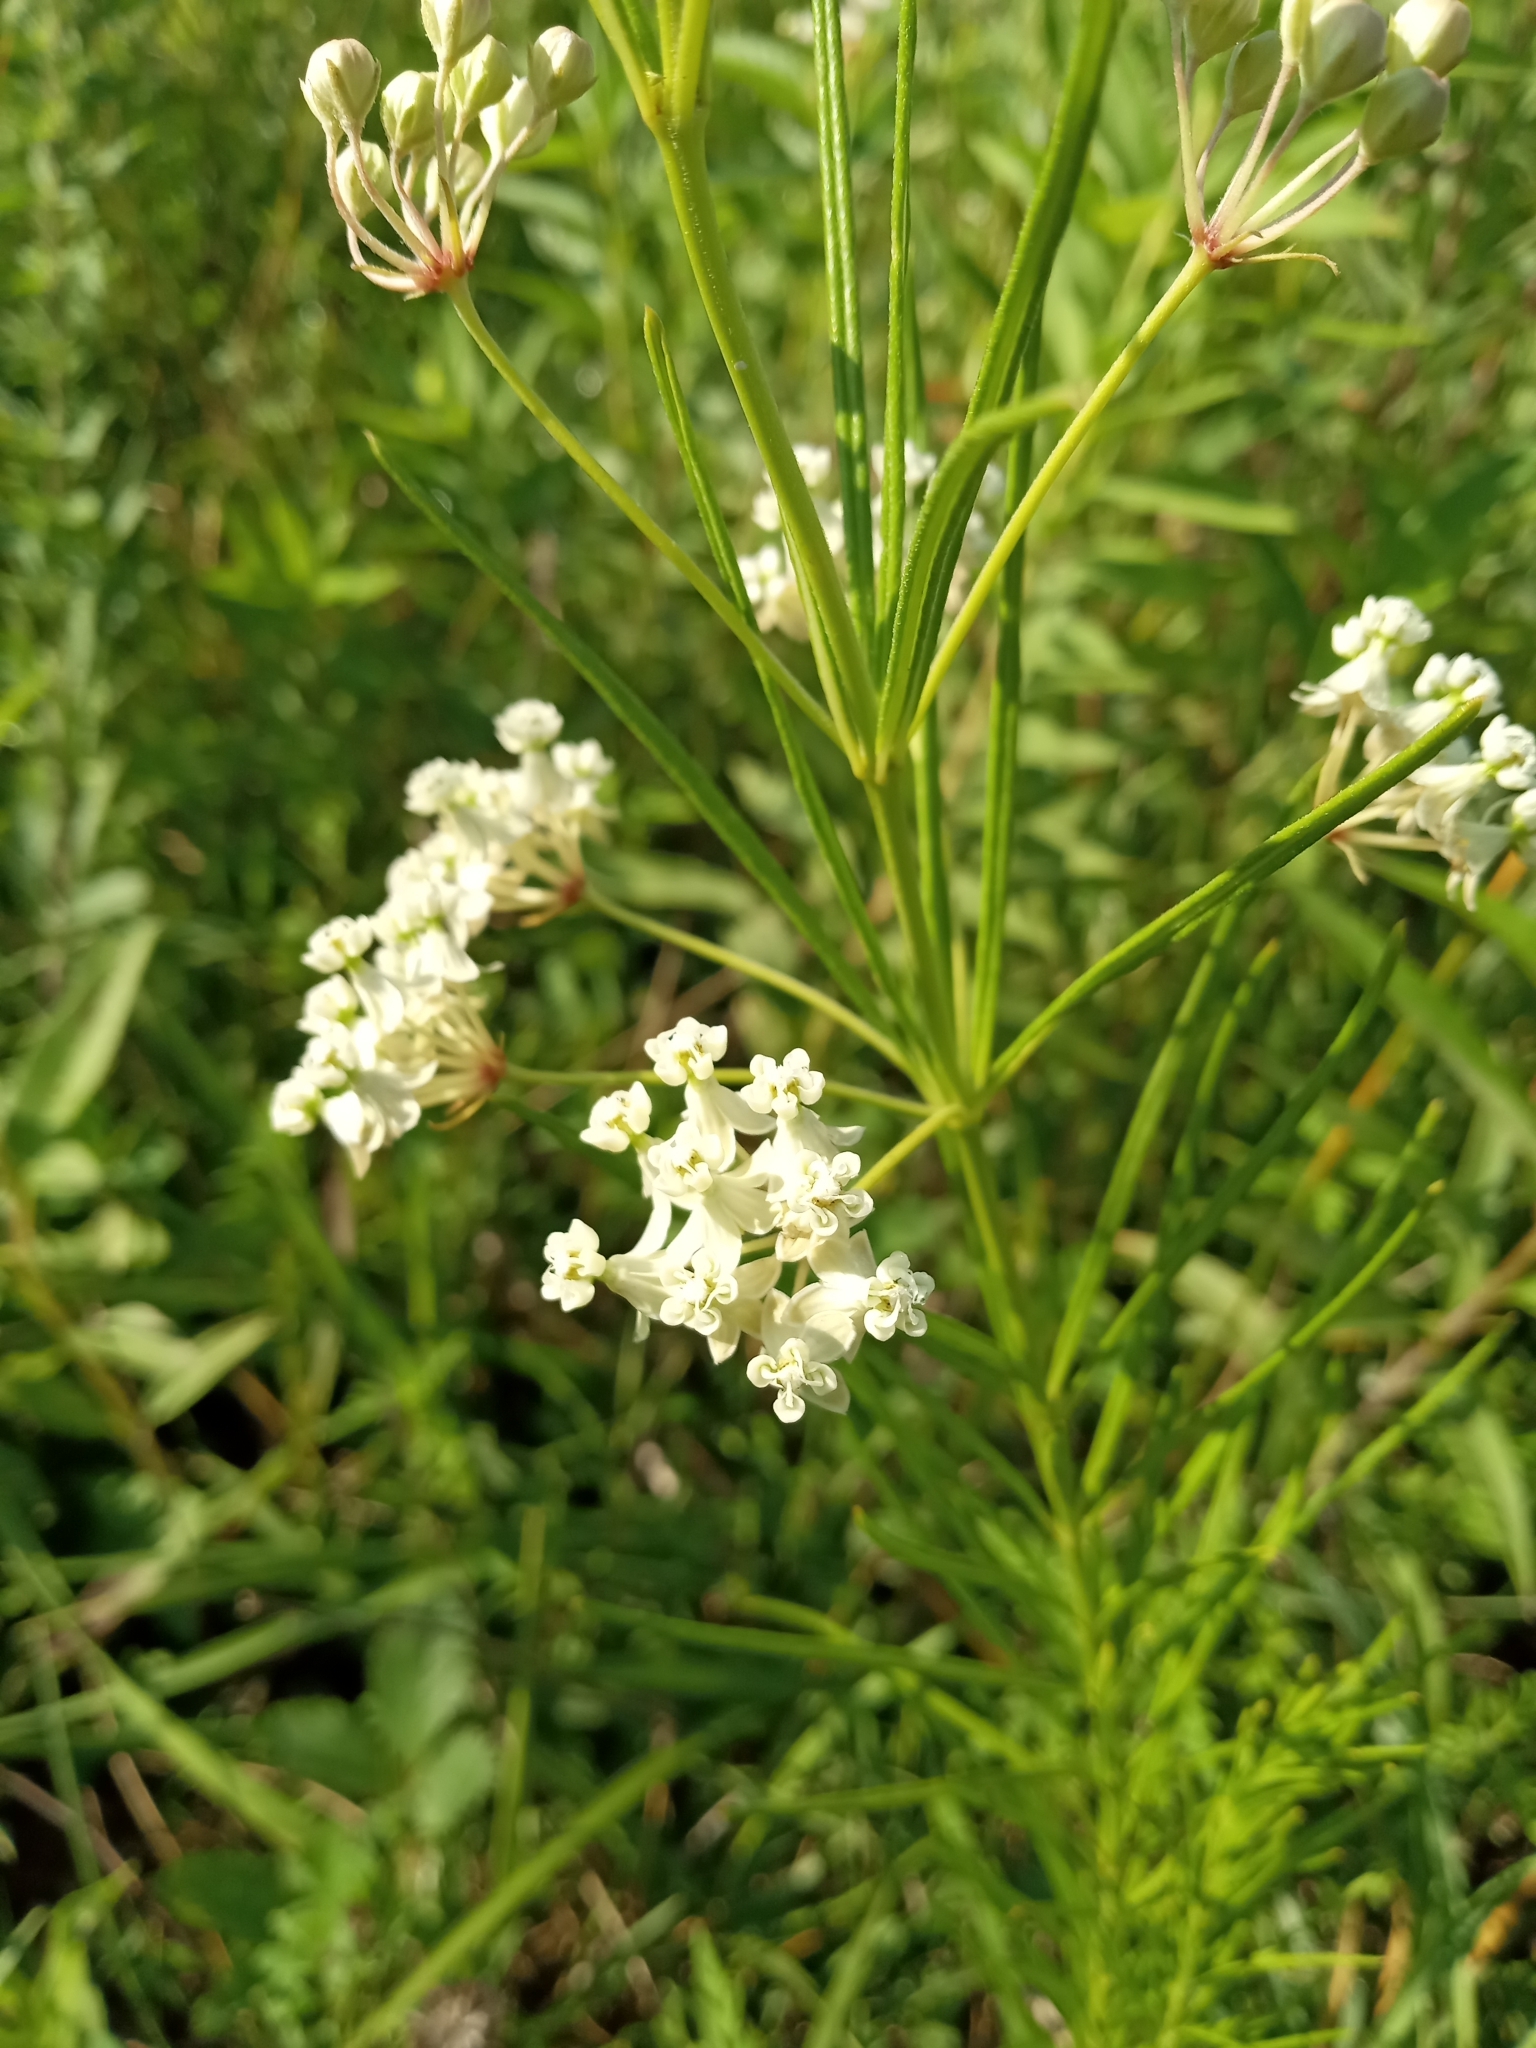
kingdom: Plantae
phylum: Tracheophyta
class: Magnoliopsida
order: Gentianales
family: Apocynaceae
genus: Asclepias
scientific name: Asclepias verticillata
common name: Eastern whorled milkweed
